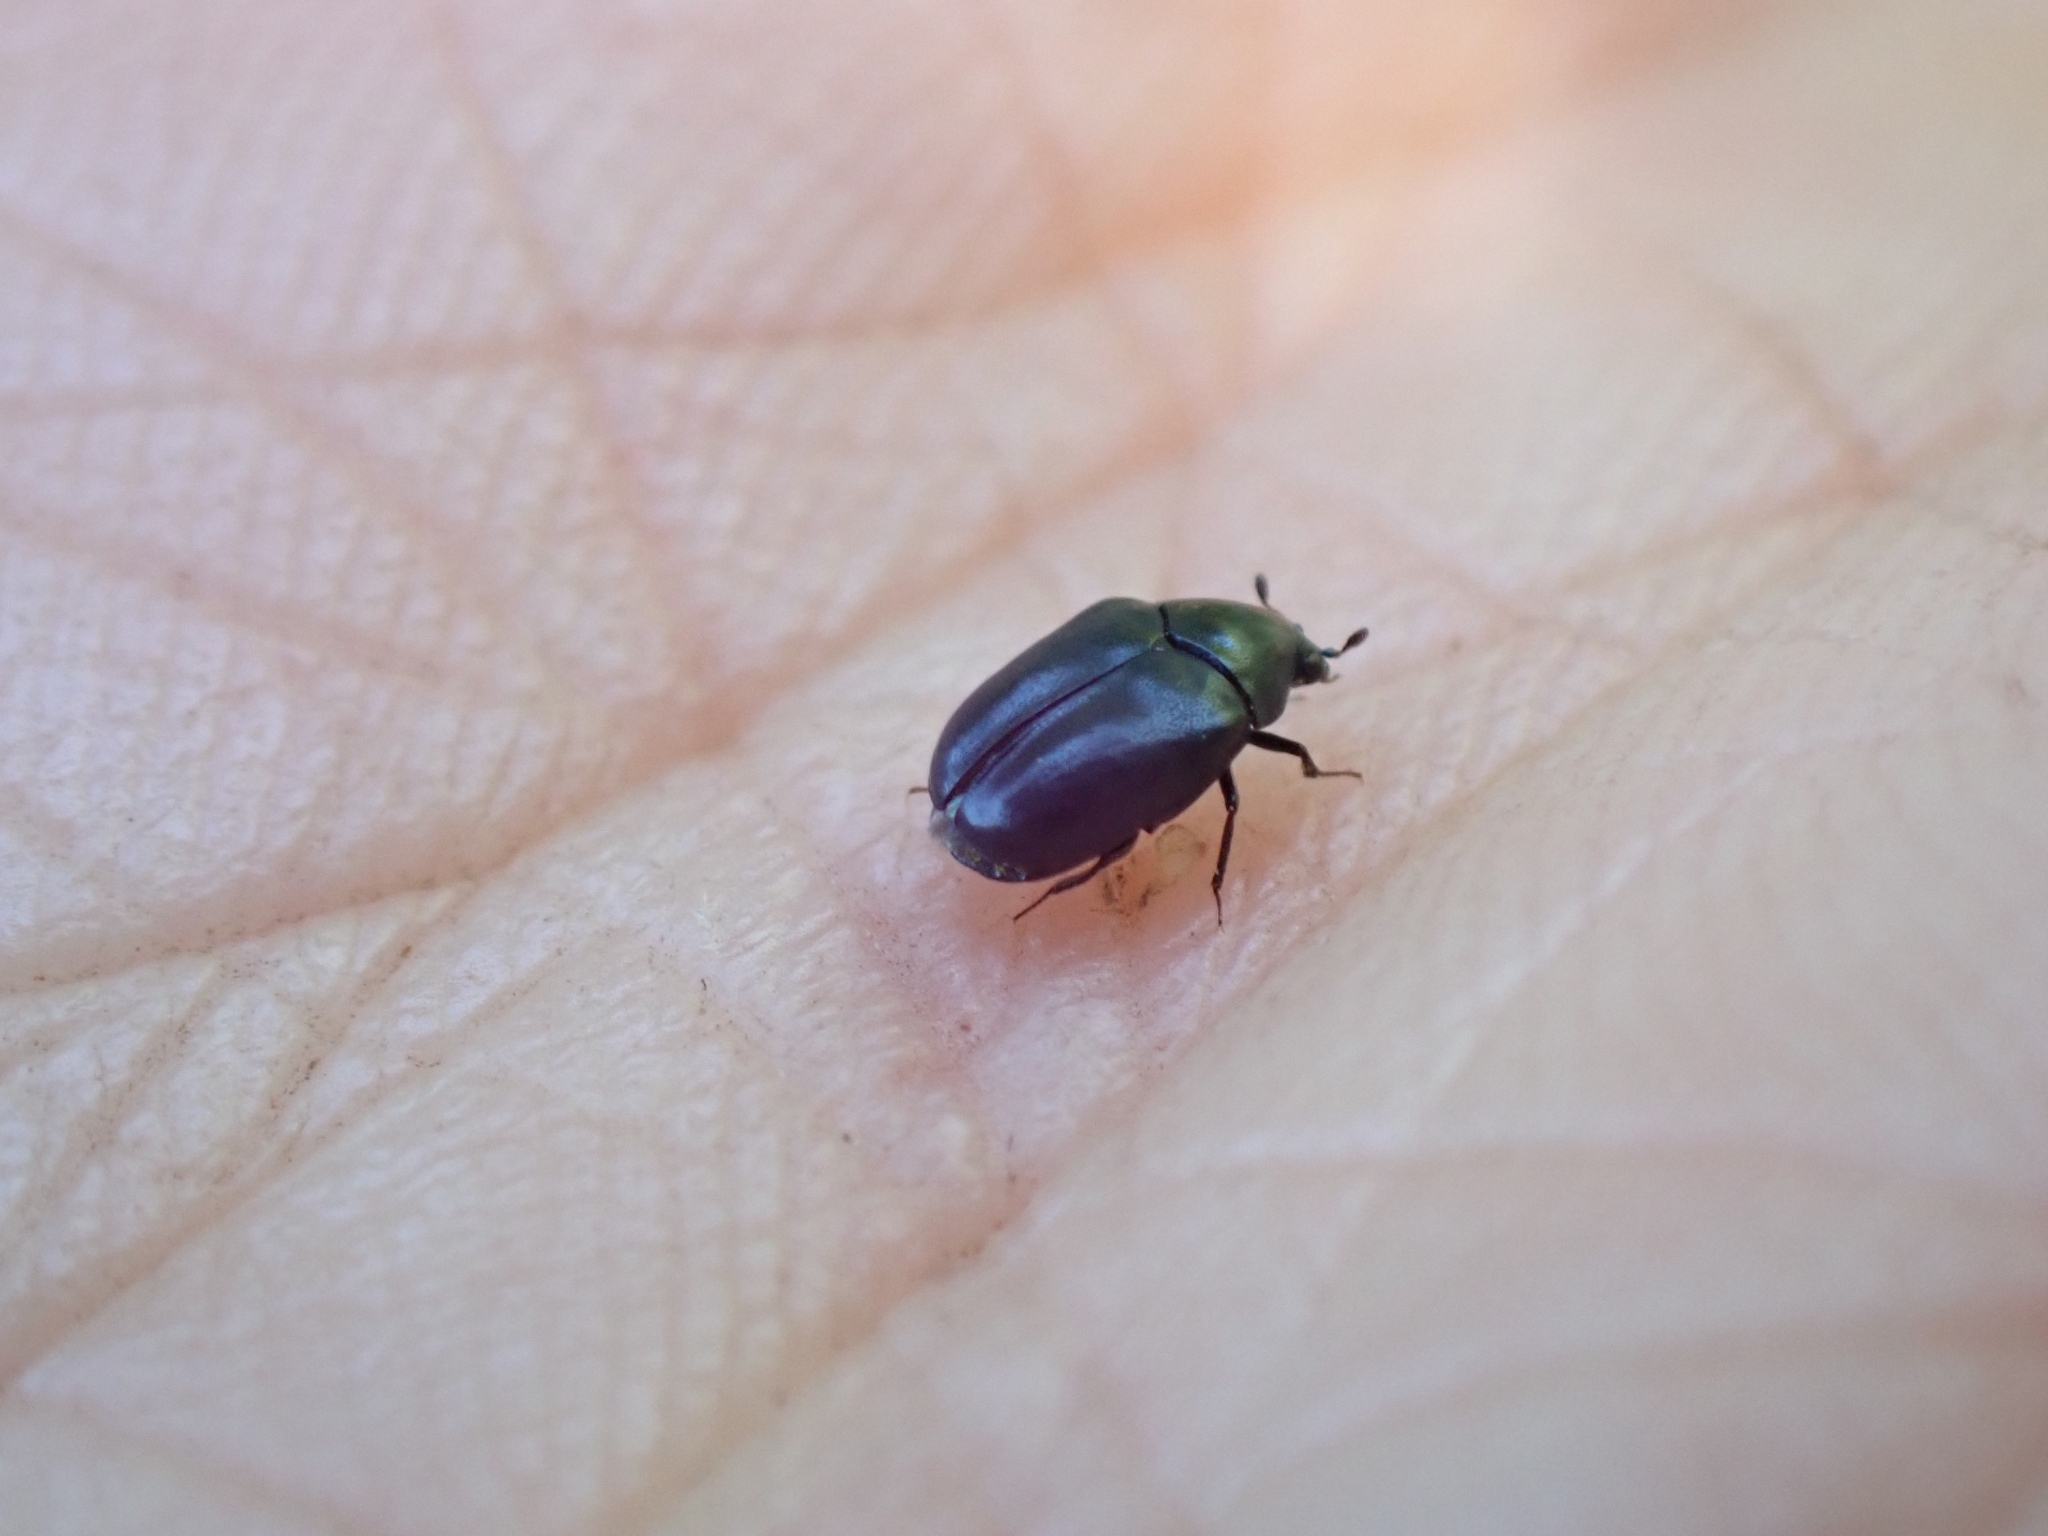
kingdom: Animalia
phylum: Arthropoda
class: Insecta
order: Coleoptera
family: Dermestidae
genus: Orphilus
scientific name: Orphilus subnitidus
